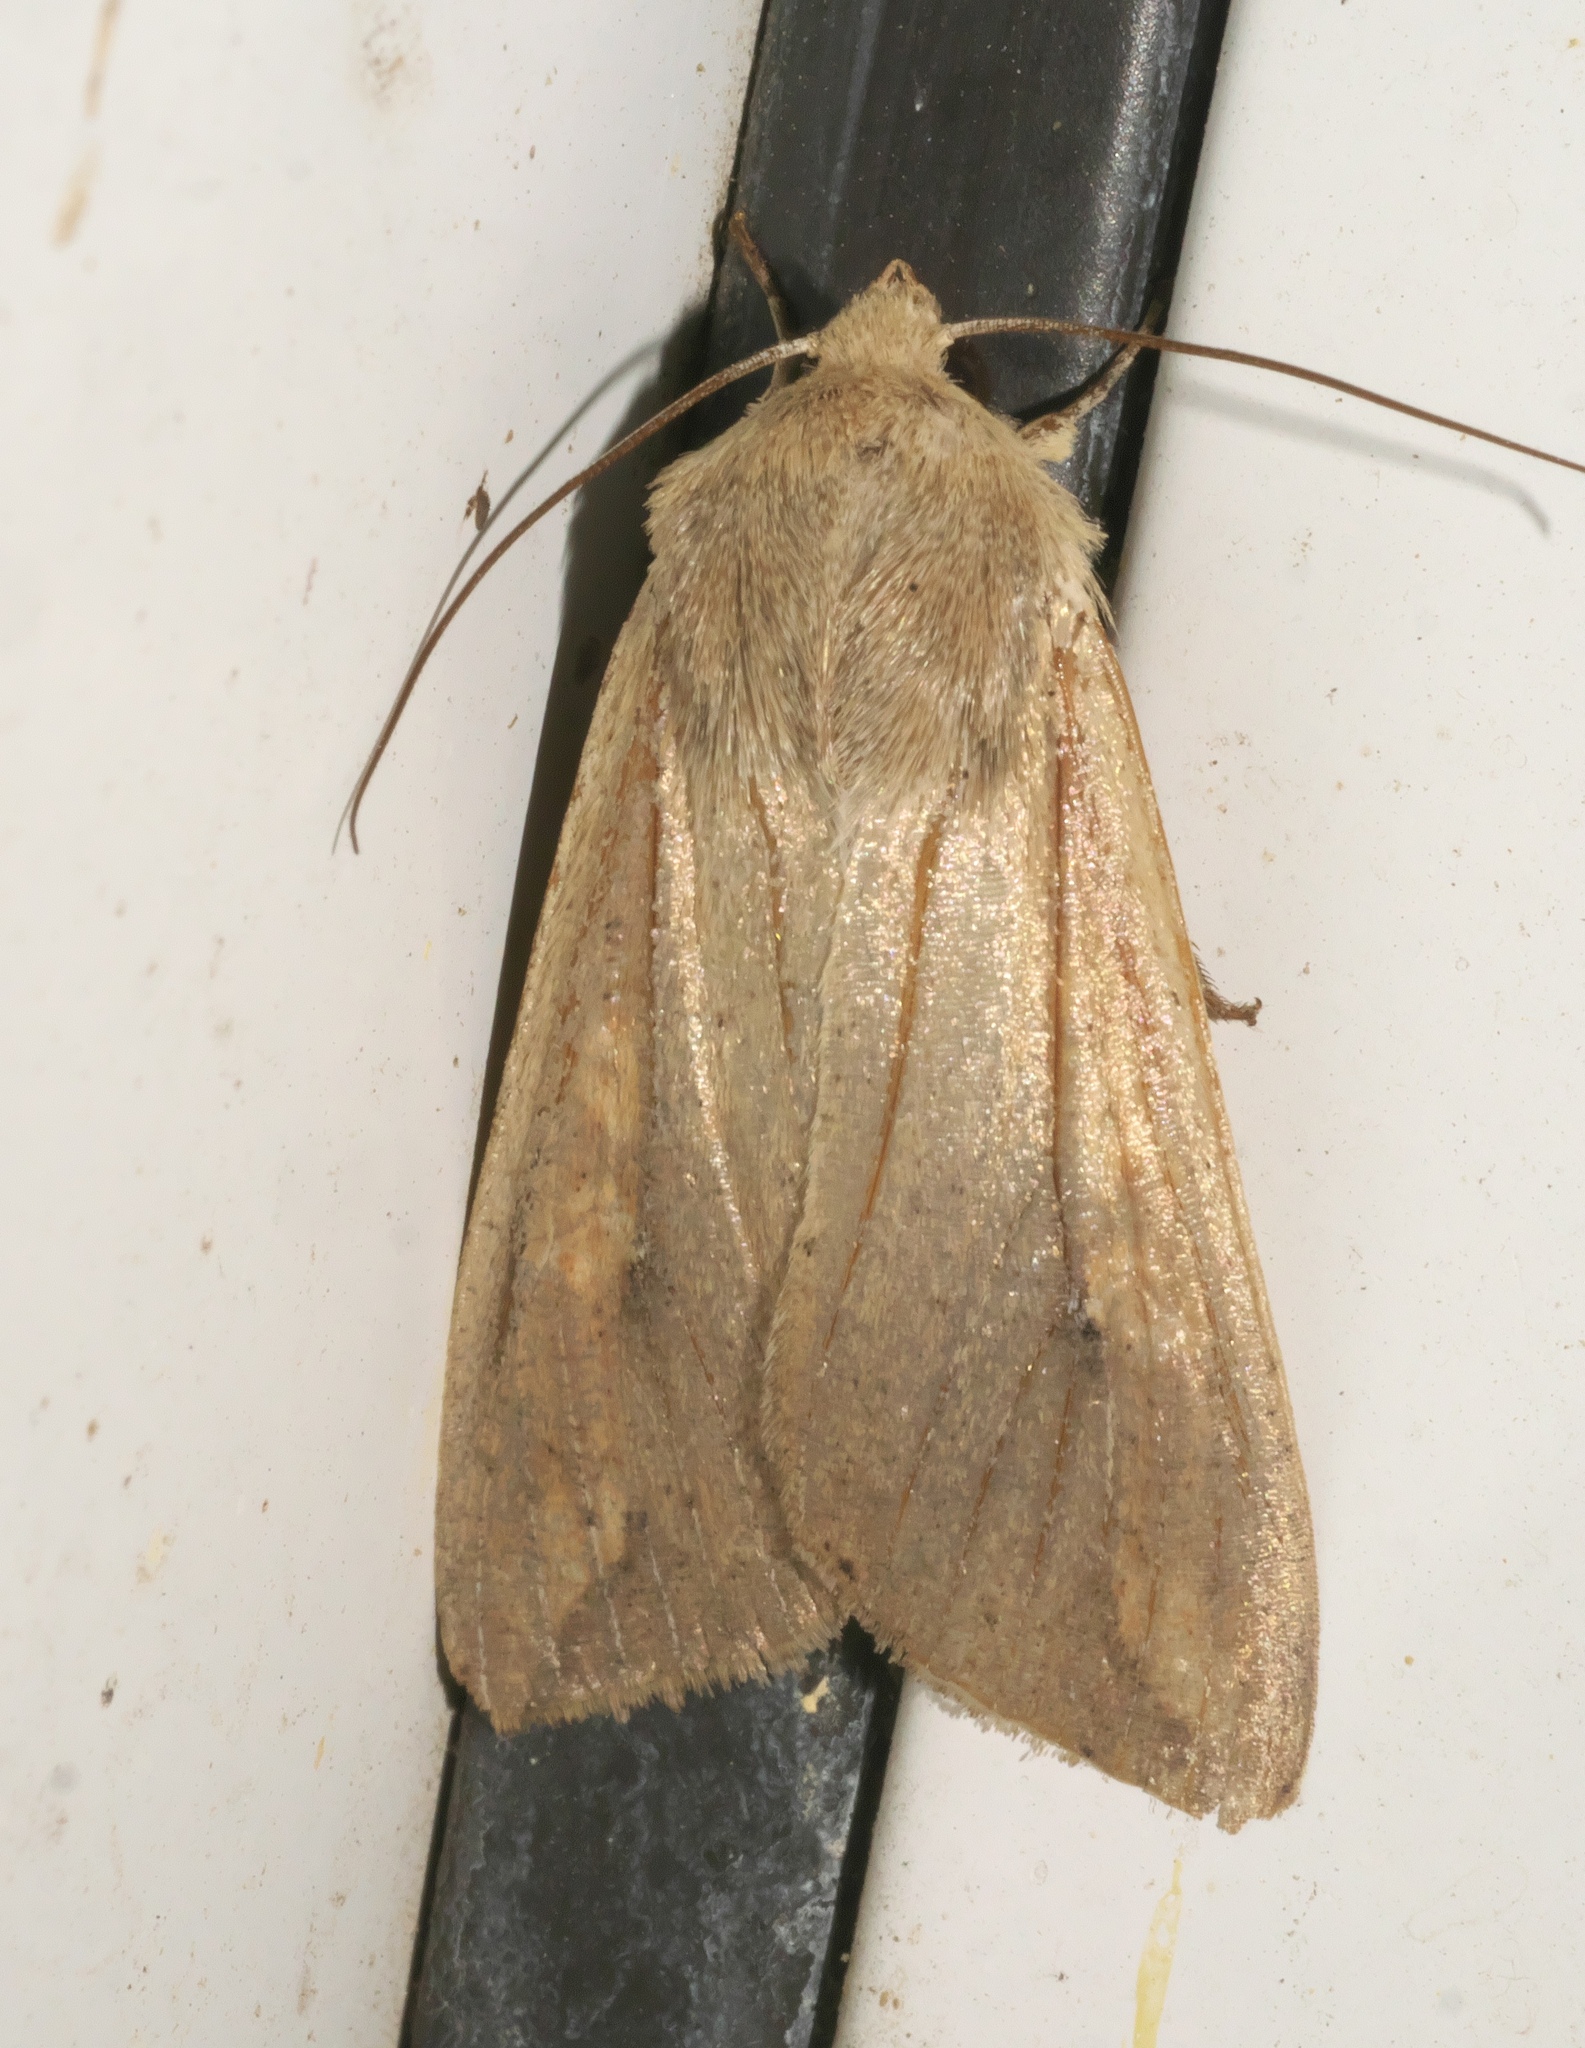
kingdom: Animalia
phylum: Arthropoda
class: Insecta
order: Lepidoptera
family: Noctuidae
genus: Mythimna
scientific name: Mythimna unipuncta
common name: White-speck
